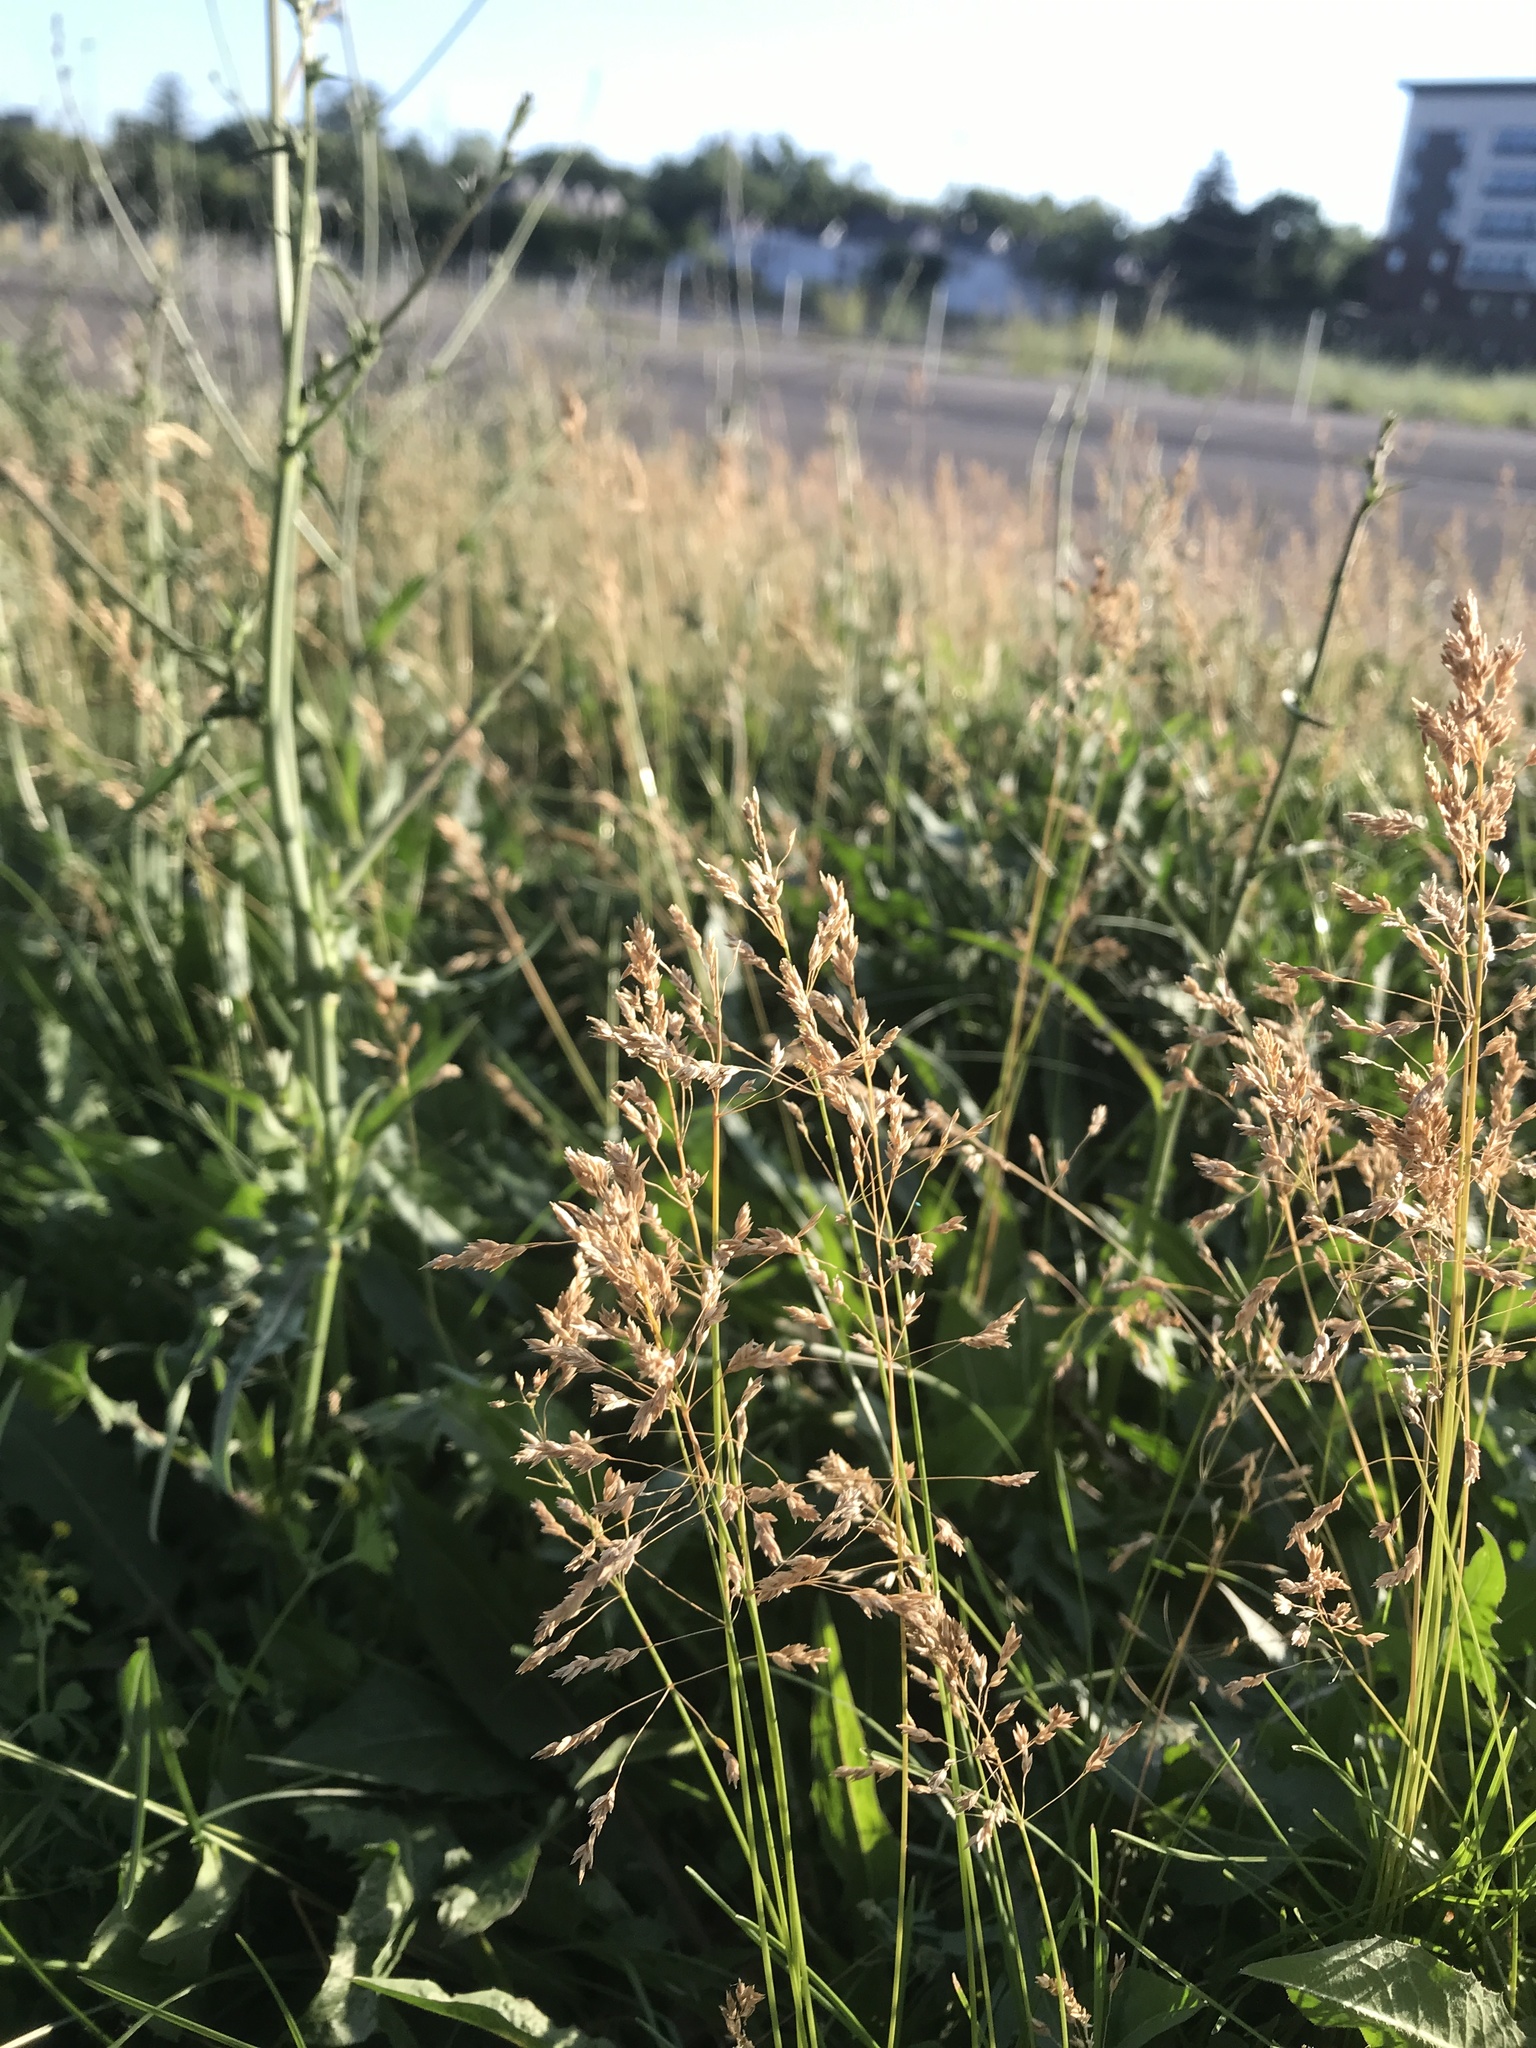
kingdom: Plantae
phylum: Tracheophyta
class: Liliopsida
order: Poales
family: Poaceae
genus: Poa
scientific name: Poa pratensis
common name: Kentucky bluegrass
